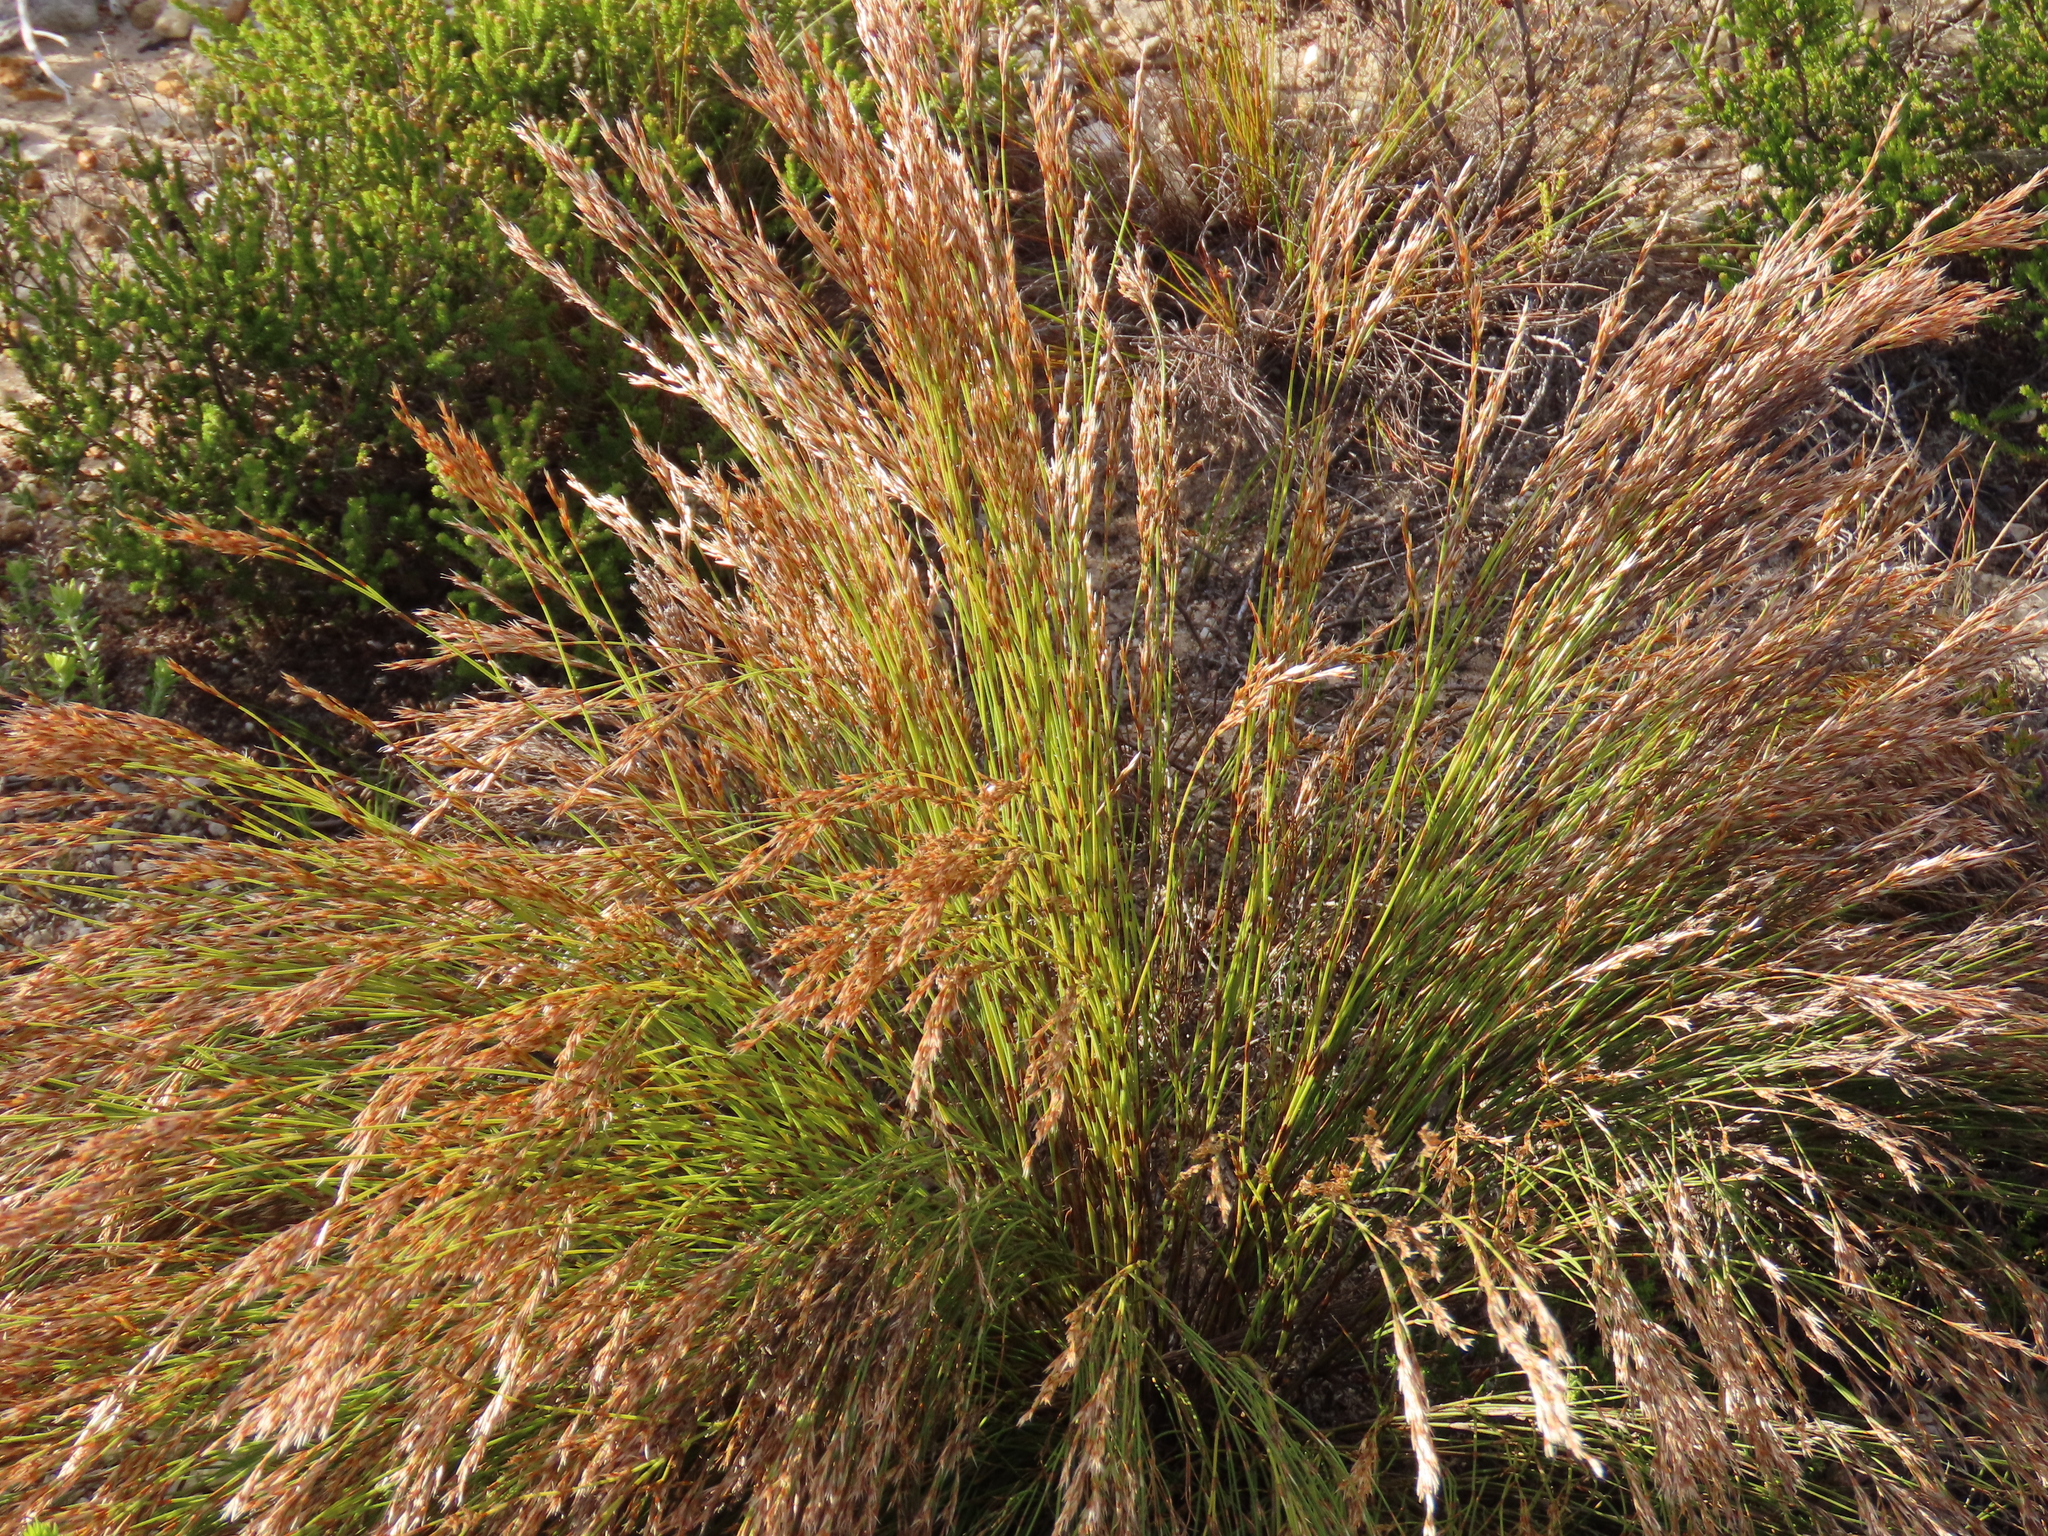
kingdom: Plantae
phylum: Tracheophyta
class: Liliopsida
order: Poales
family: Restionaceae
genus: Restio
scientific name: Restio hyalinus
